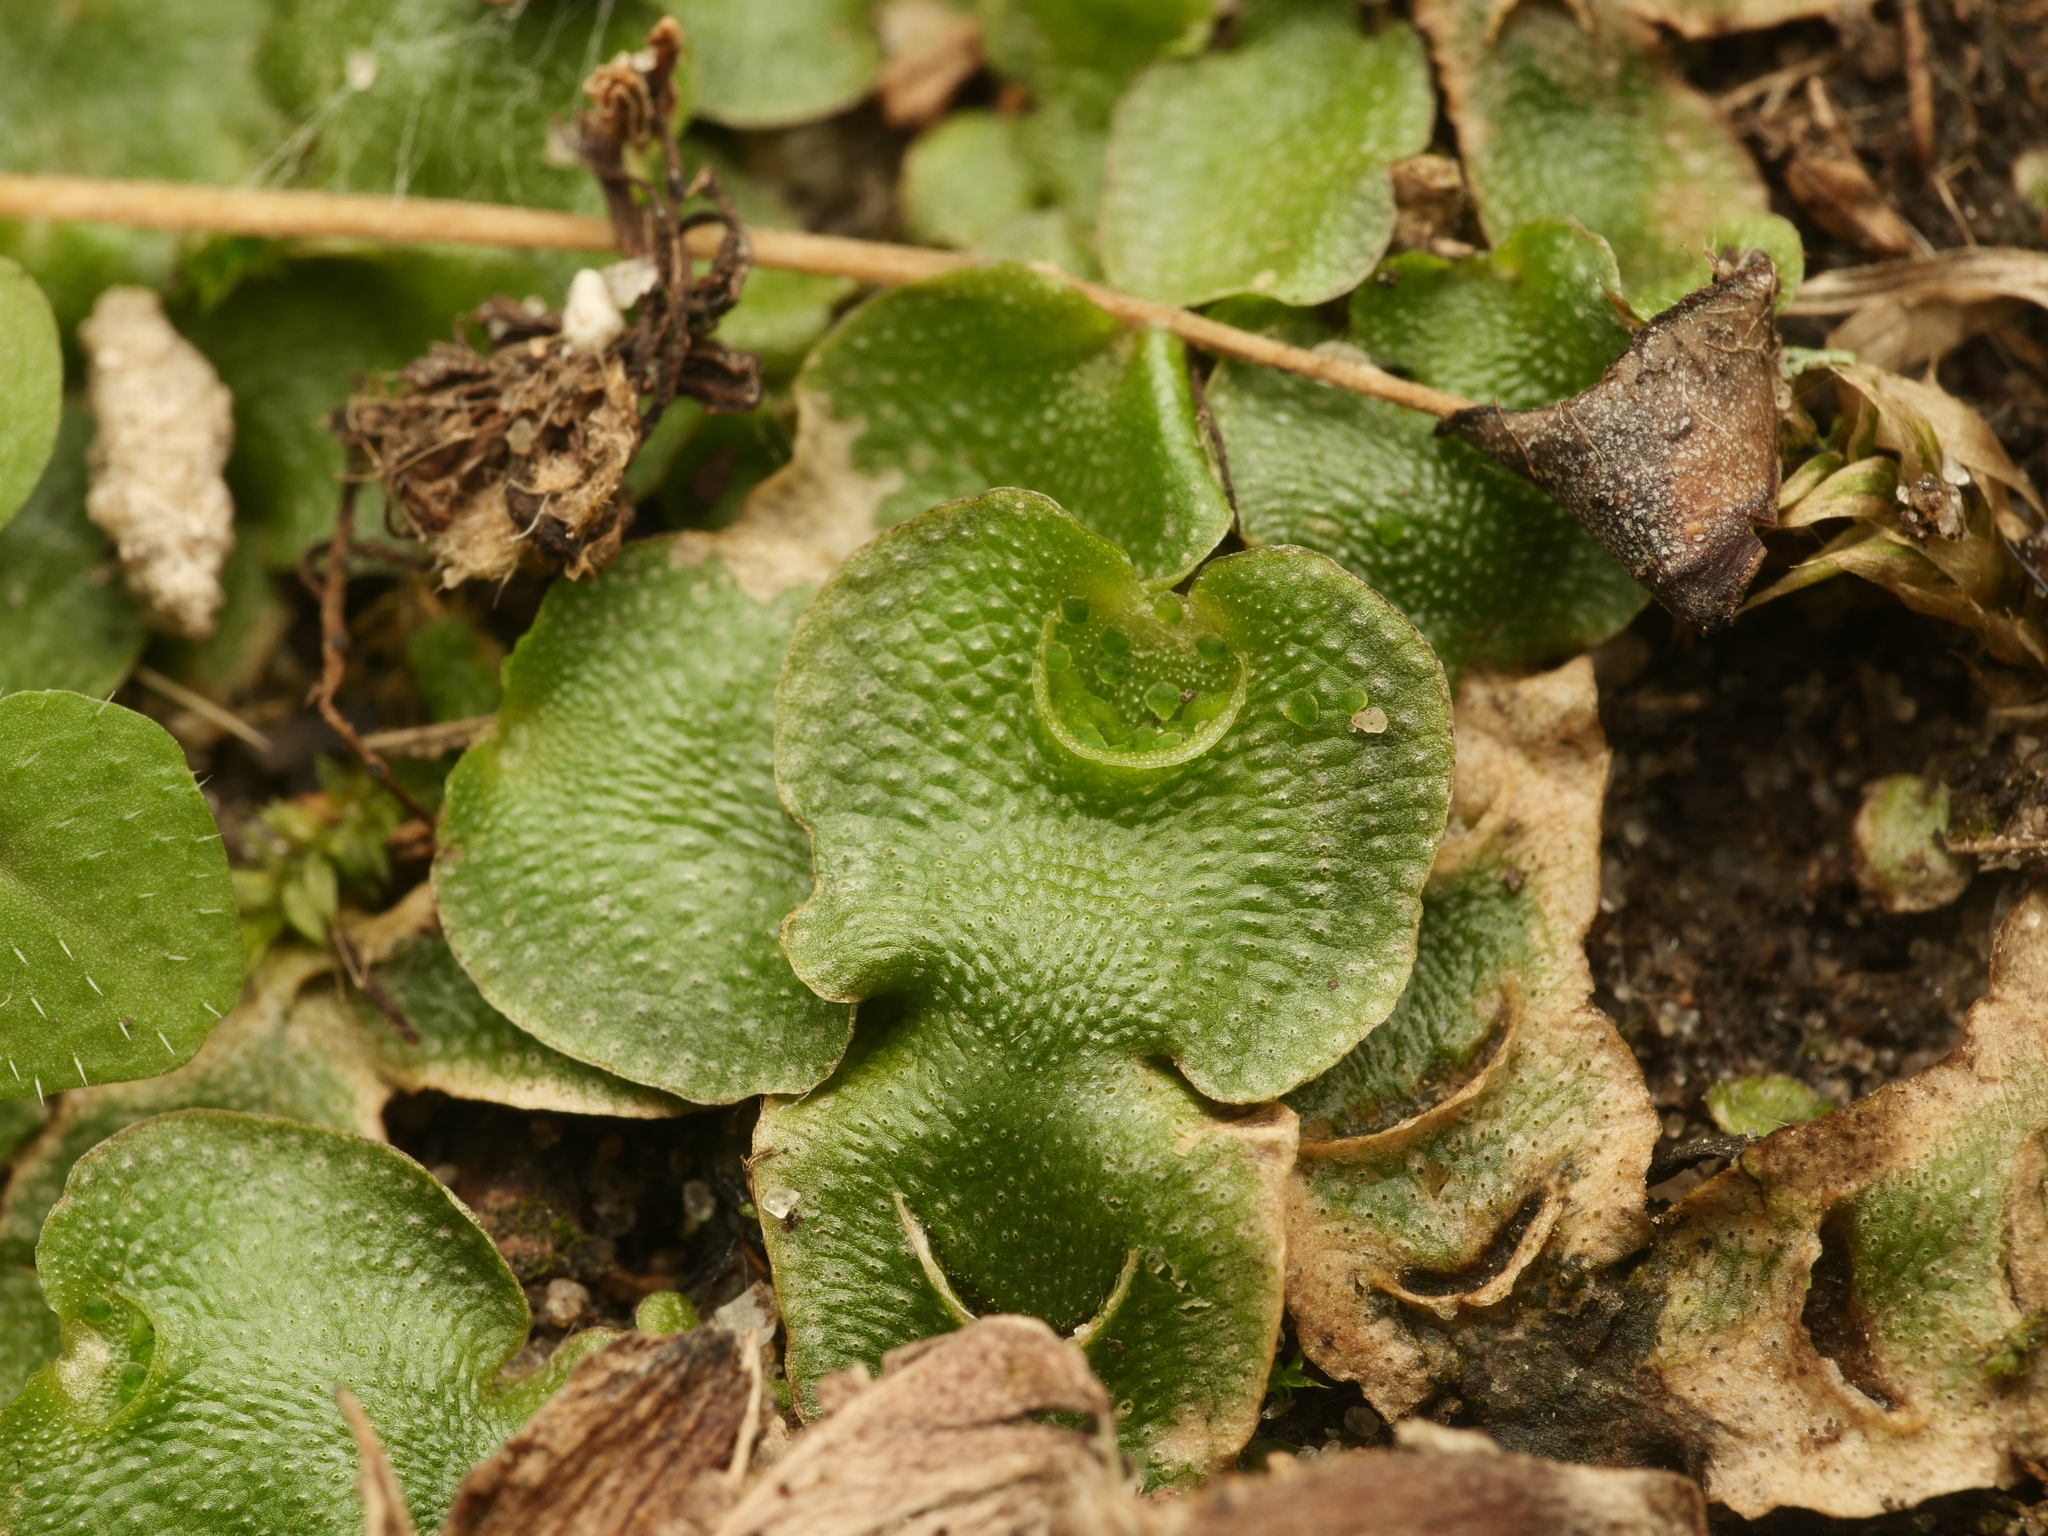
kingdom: Plantae
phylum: Marchantiophyta
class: Marchantiopsida
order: Lunulariales
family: Lunulariaceae
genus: Lunularia
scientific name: Lunularia cruciata
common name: Crescent-cup liverwort
